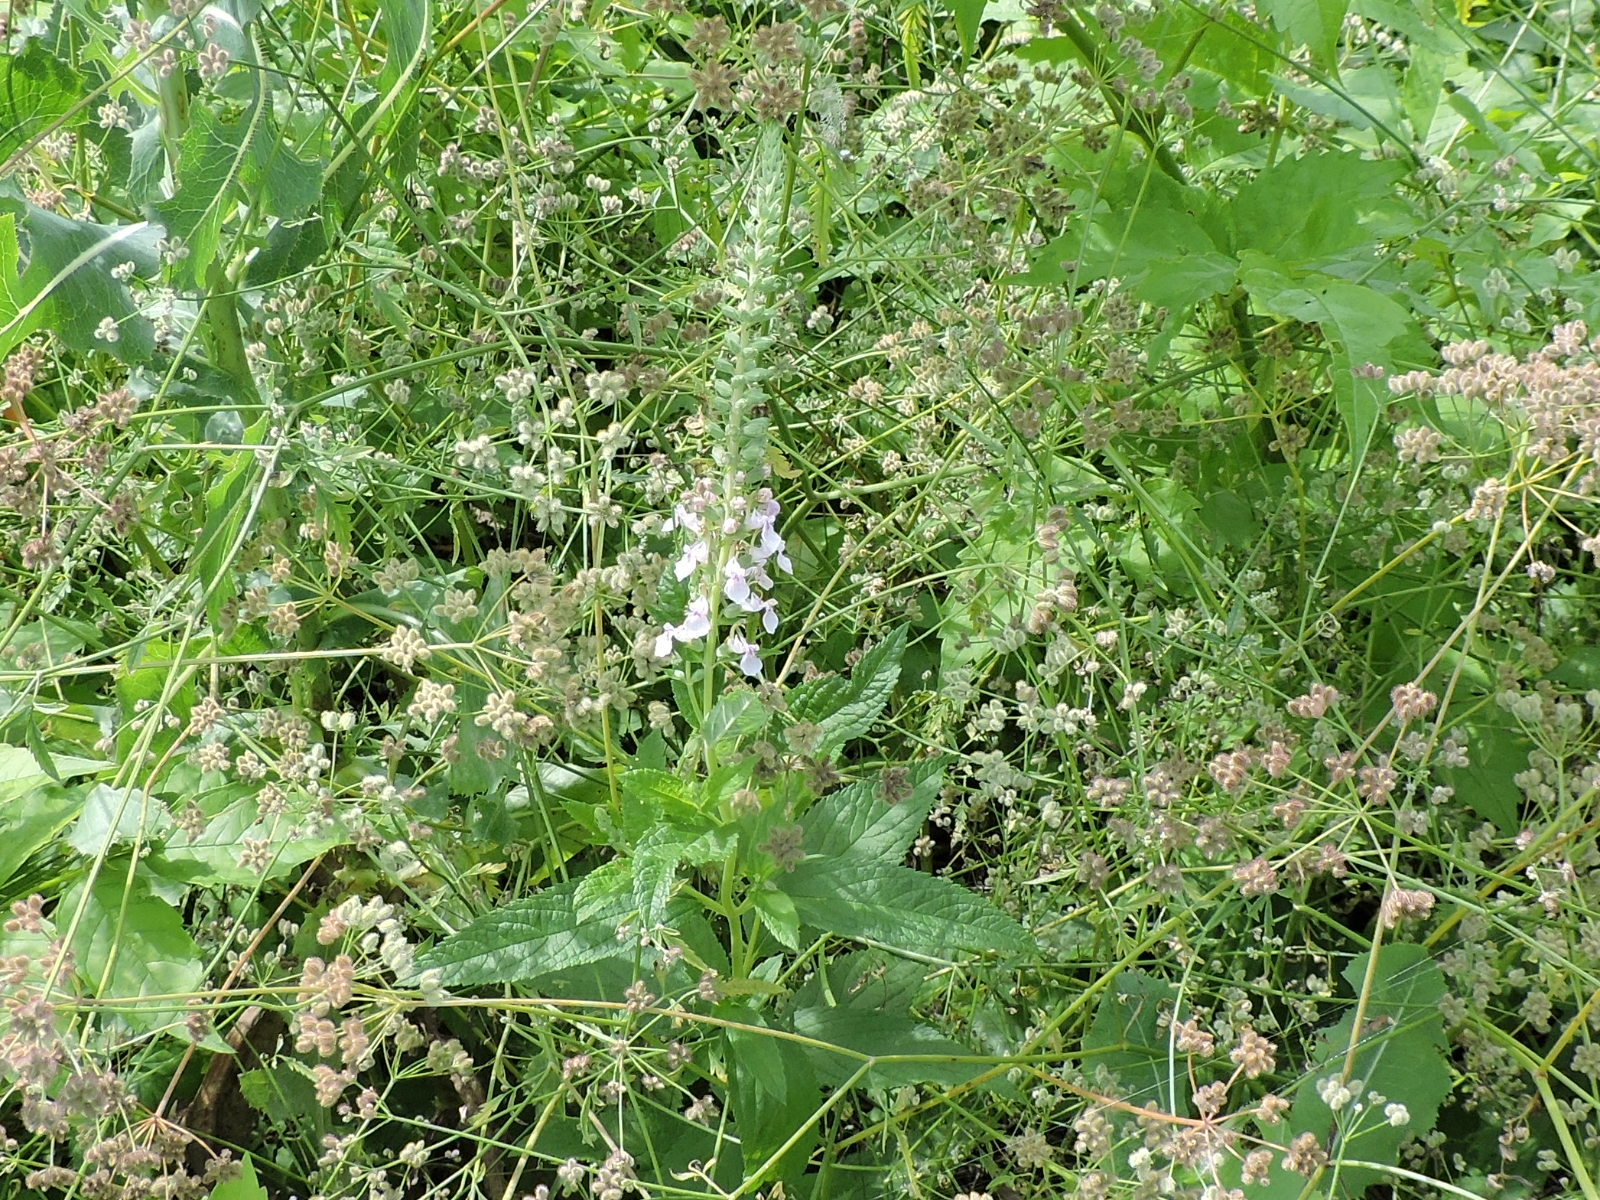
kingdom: Plantae
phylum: Tracheophyta
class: Magnoliopsida
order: Lamiales
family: Lamiaceae
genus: Teucrium
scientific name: Teucrium canadense
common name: American germander
